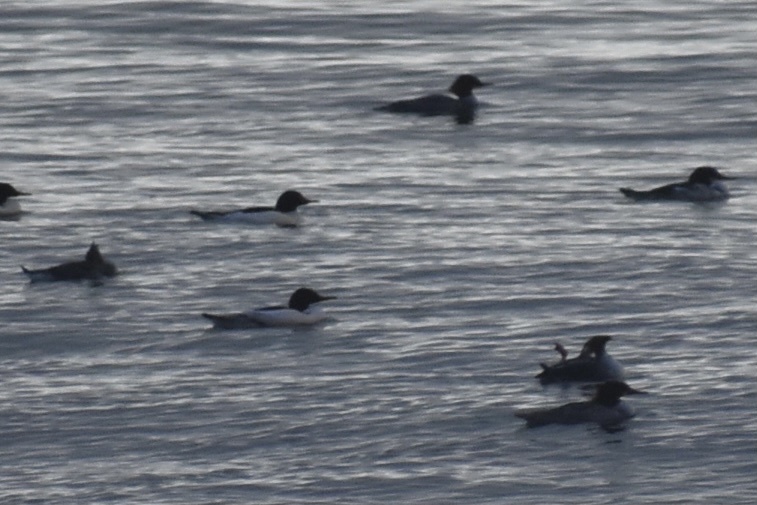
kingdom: Animalia
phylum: Chordata
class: Aves
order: Anseriformes
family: Anatidae
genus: Mergus
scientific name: Mergus merganser
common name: Common merganser
